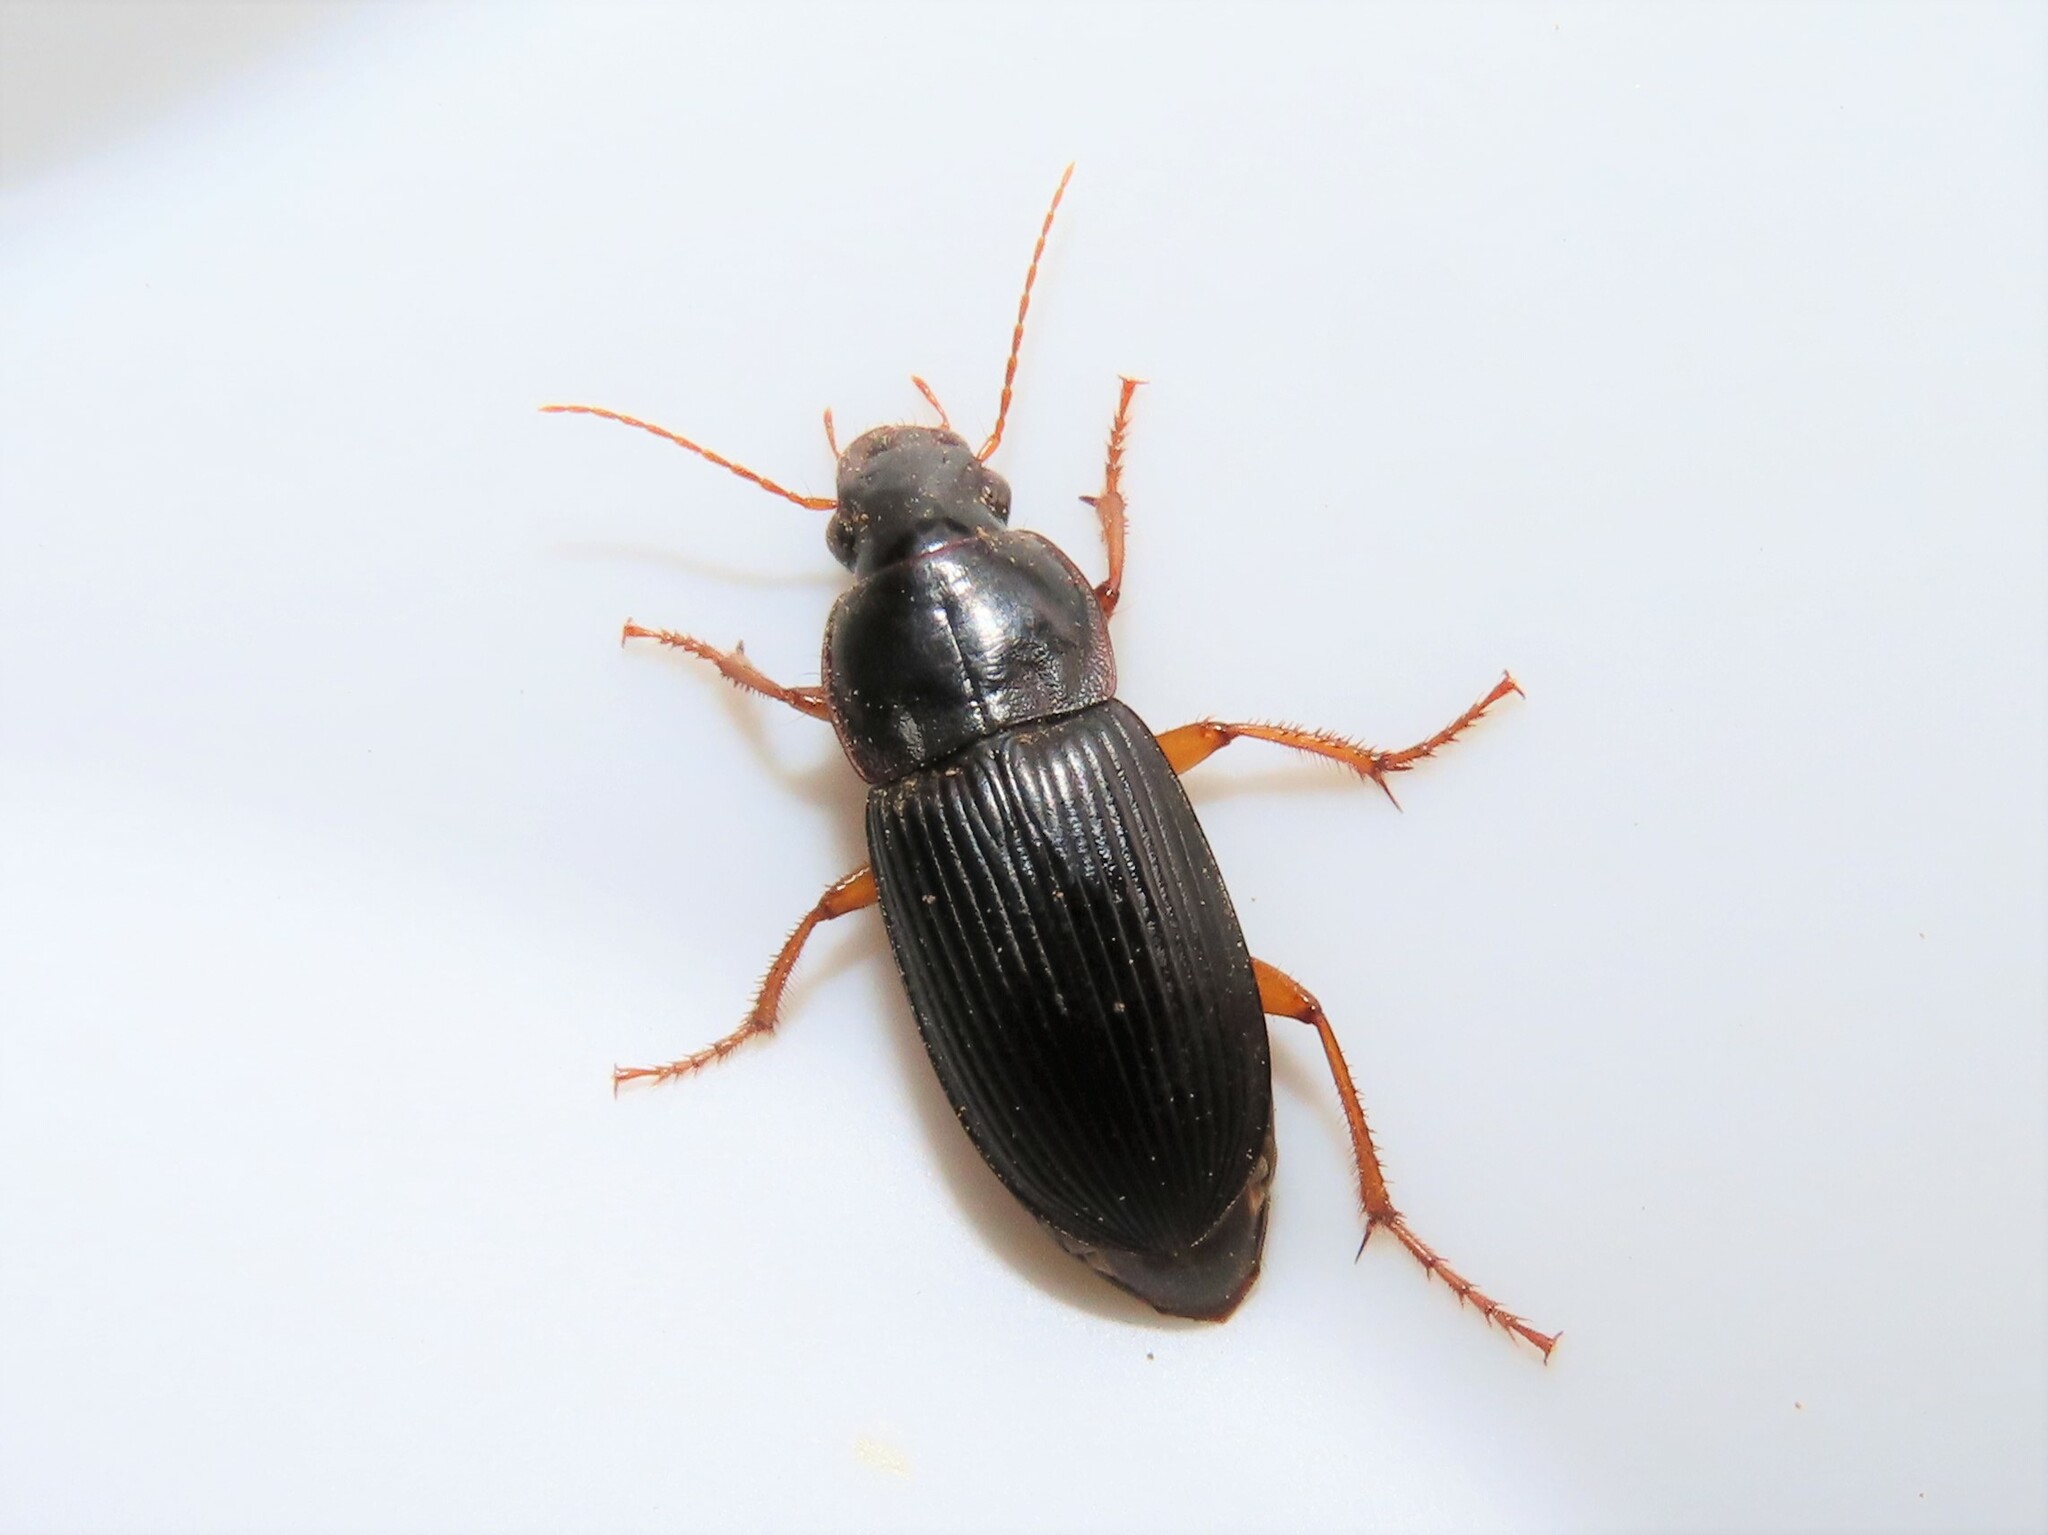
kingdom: Animalia
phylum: Arthropoda
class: Insecta
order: Coleoptera
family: Carabidae
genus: Harpalus
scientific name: Harpalus pensylvanicus
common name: Pennsylvania dingy ground beetle
